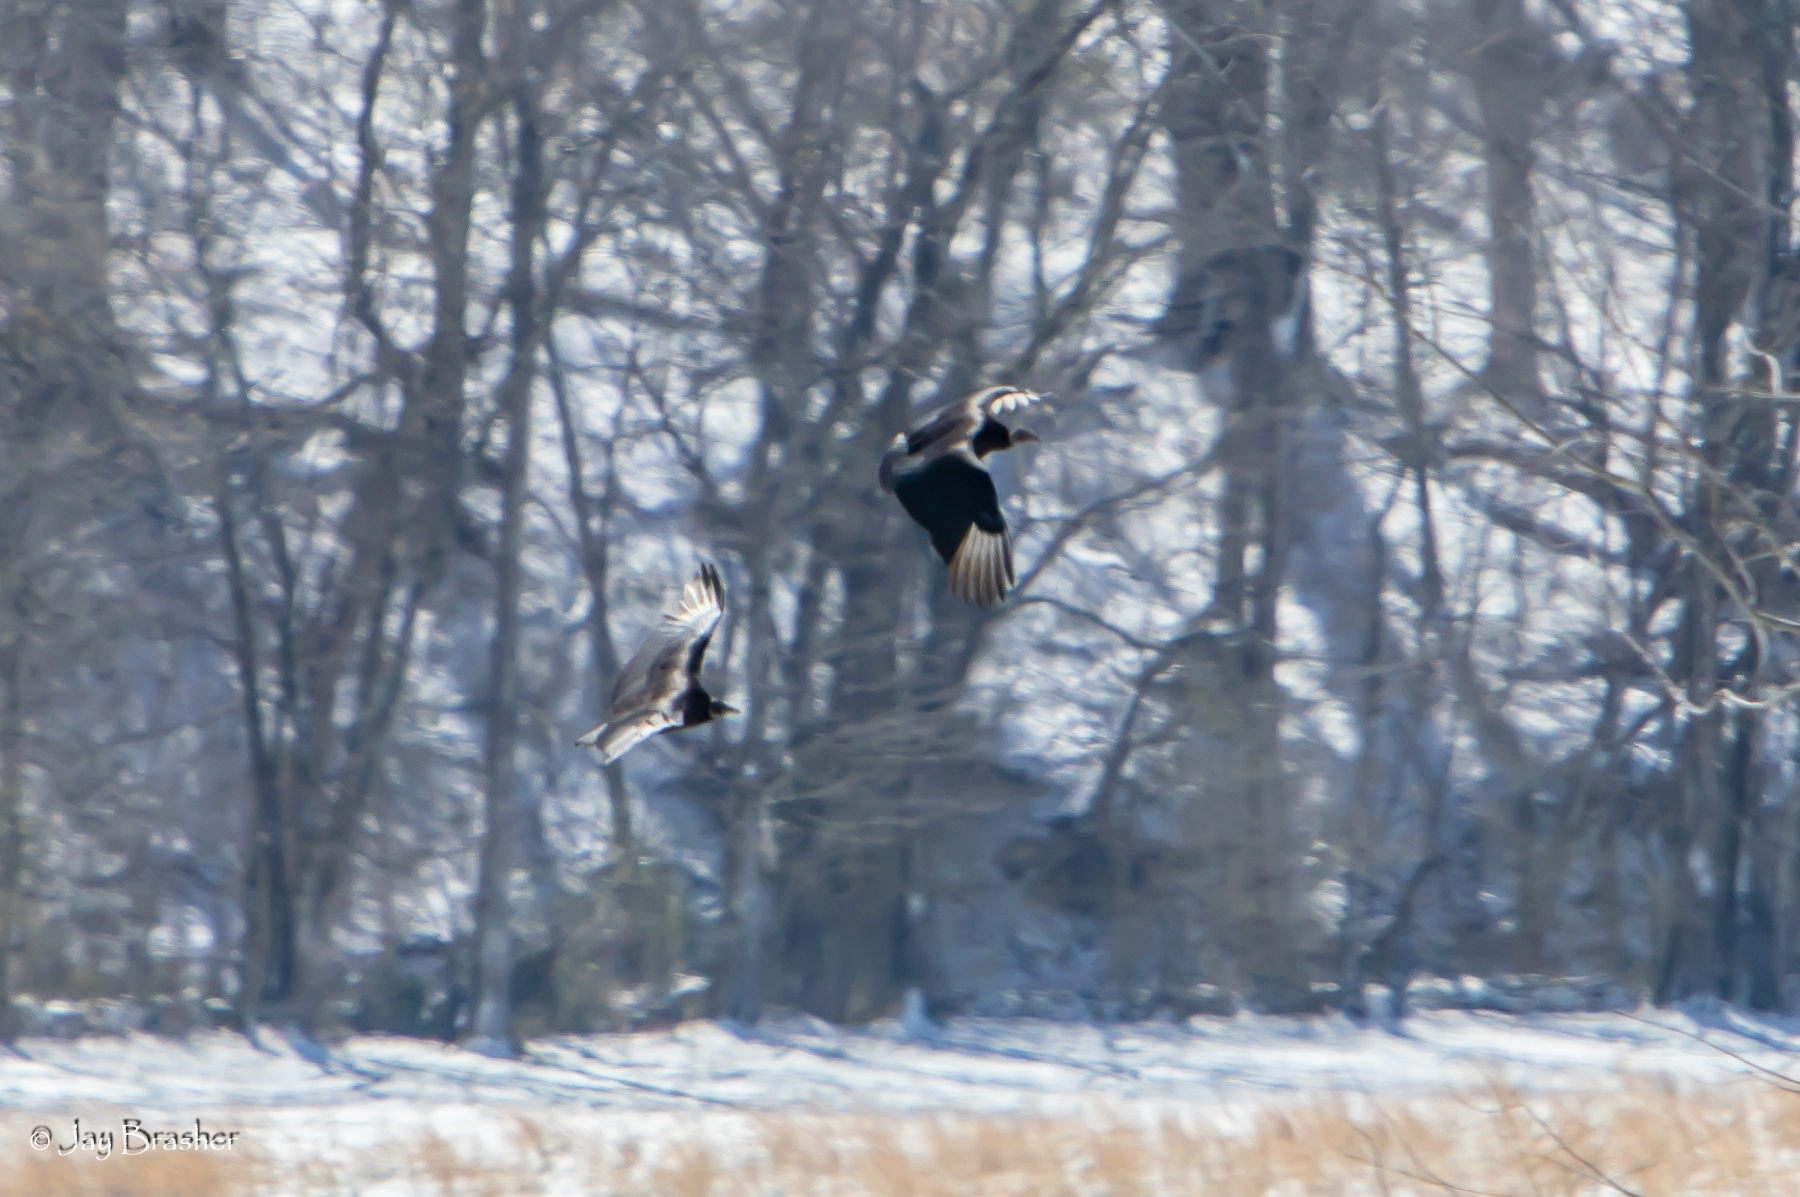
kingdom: Animalia
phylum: Chordata
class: Aves
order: Accipitriformes
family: Cathartidae
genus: Coragyps
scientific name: Coragyps atratus
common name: Black vulture
